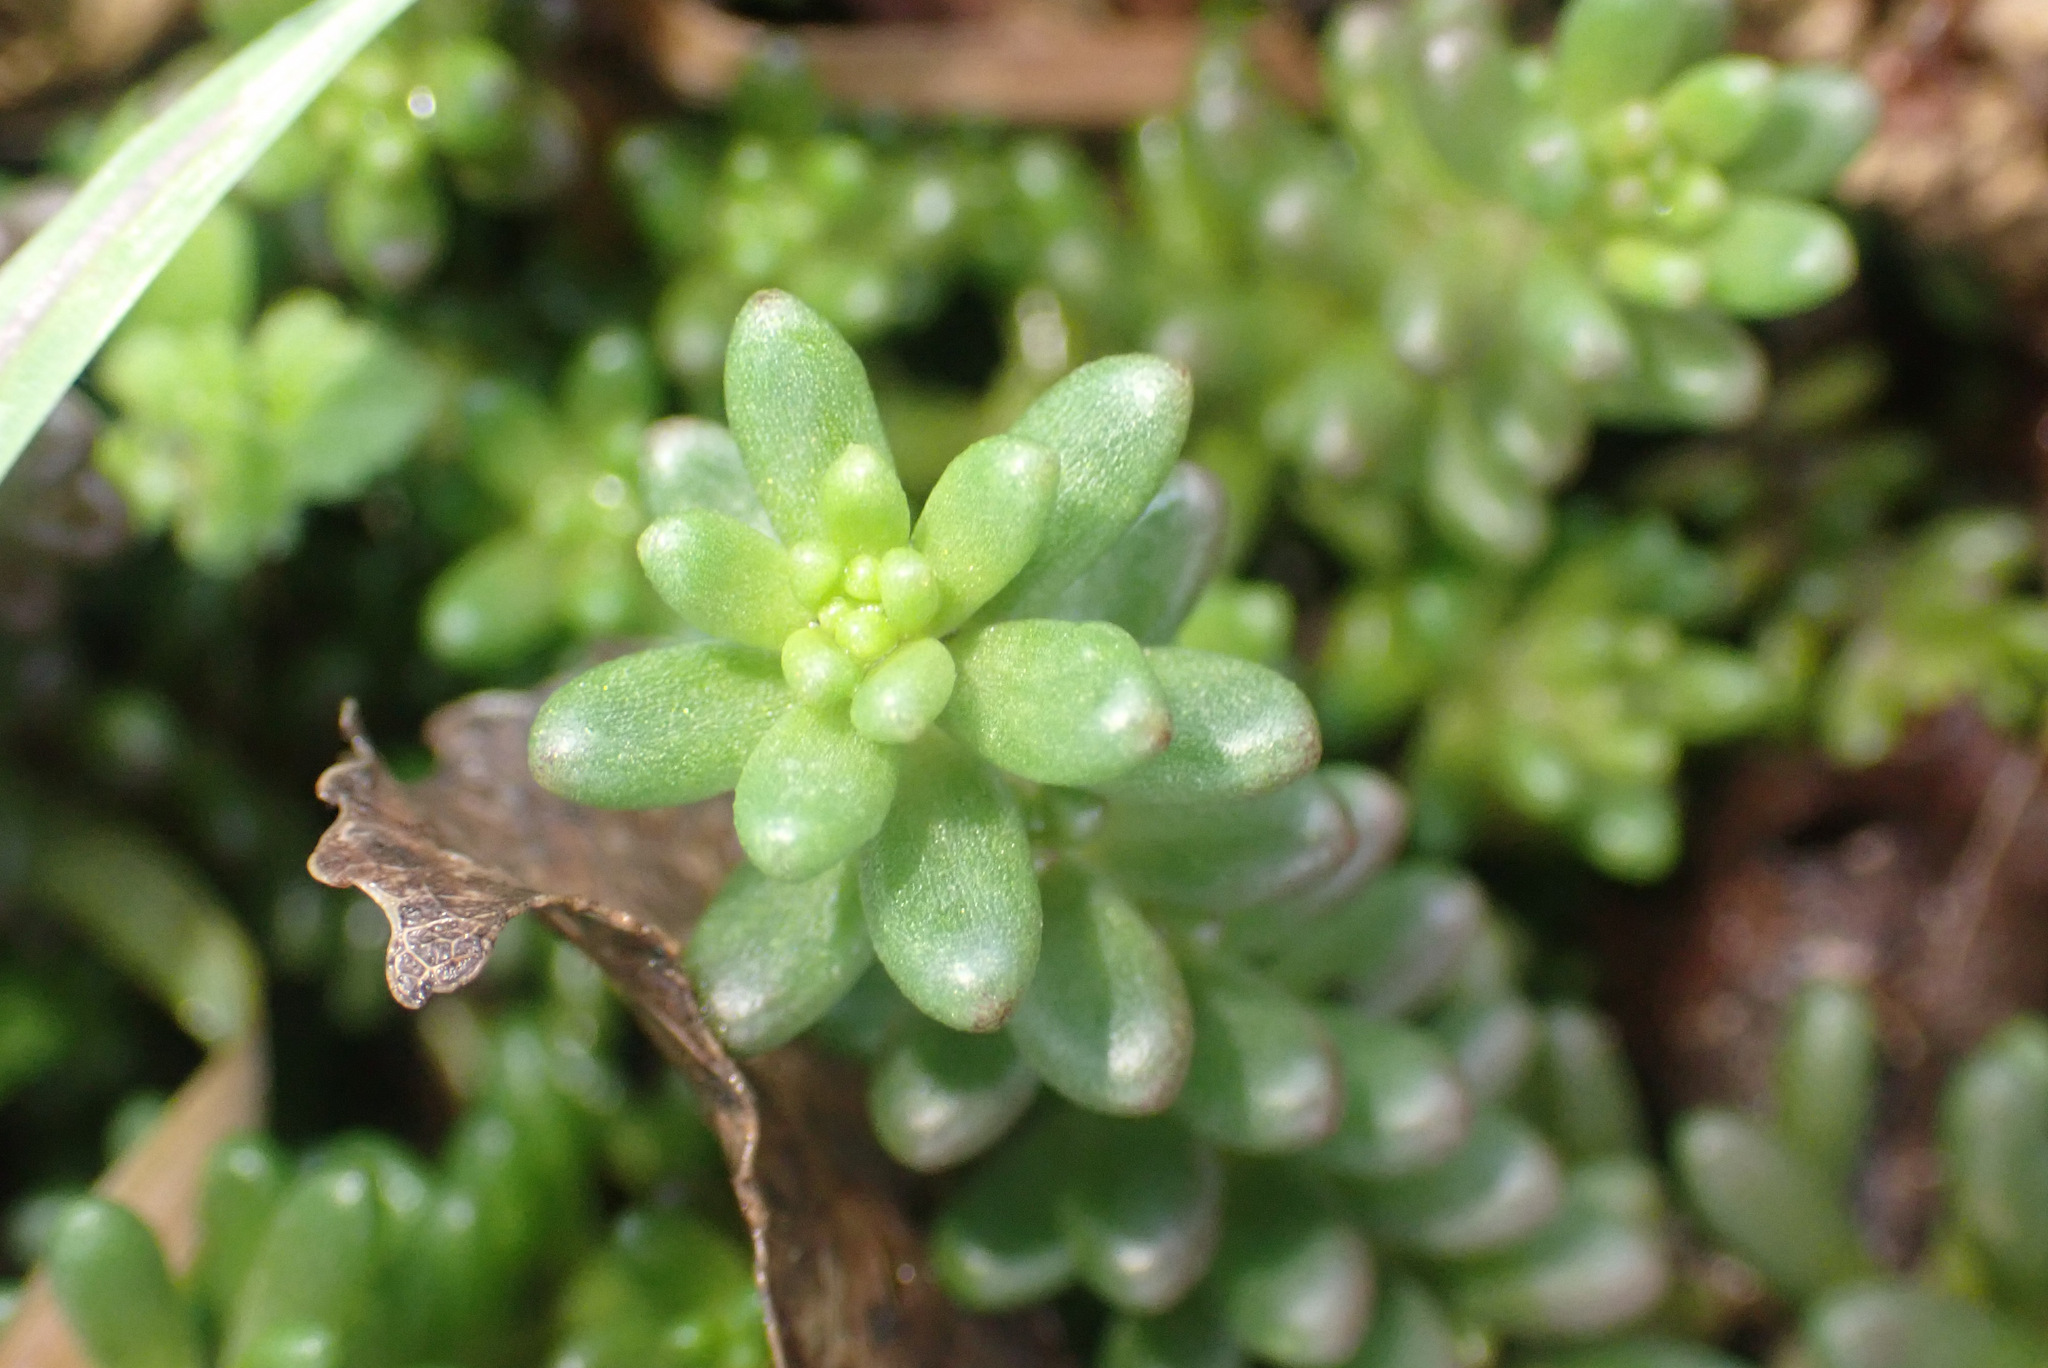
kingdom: Plantae
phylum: Tracheophyta
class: Magnoliopsida
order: Saxifragales
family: Crassulaceae
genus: Sedum
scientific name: Sedum album
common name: White stonecrop
